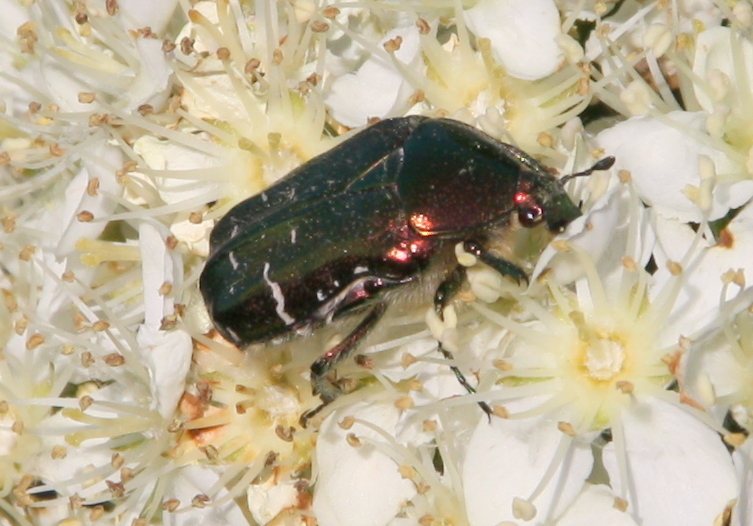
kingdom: Animalia
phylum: Arthropoda
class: Insecta
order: Coleoptera
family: Scarabaeidae
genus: Cetonia
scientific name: Cetonia aurata
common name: Rose chafer
